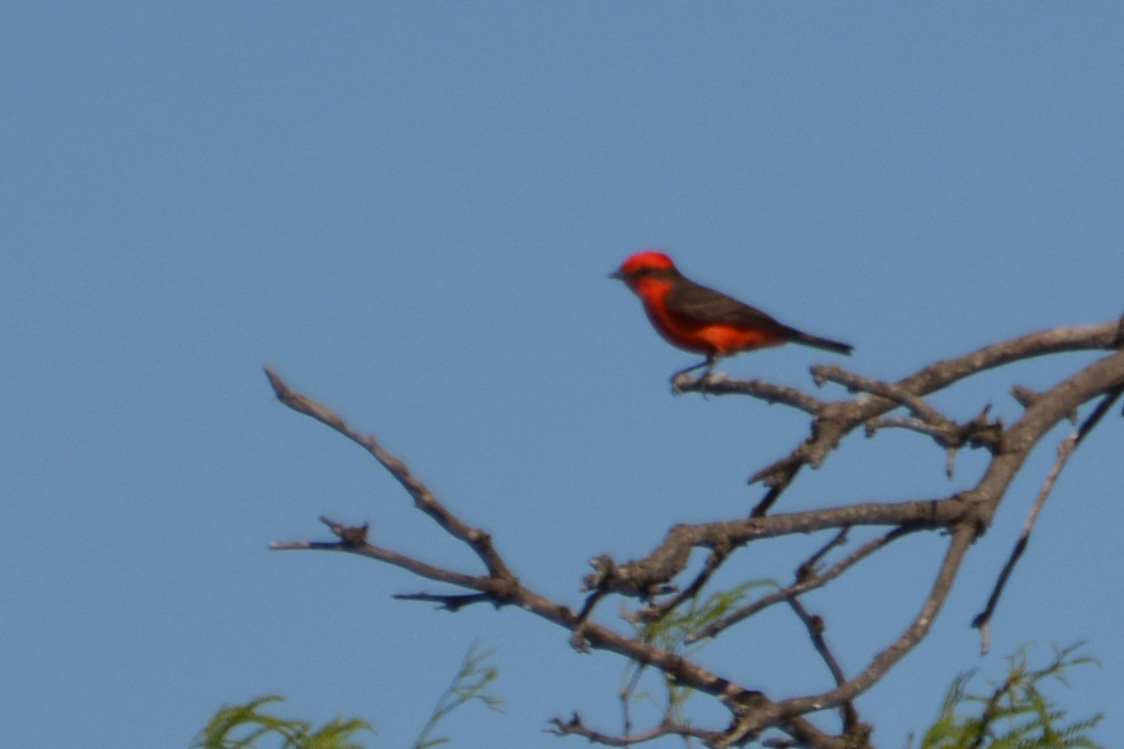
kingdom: Animalia
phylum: Chordata
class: Aves
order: Passeriformes
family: Tyrannidae
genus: Pyrocephalus
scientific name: Pyrocephalus rubinus
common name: Vermilion flycatcher
